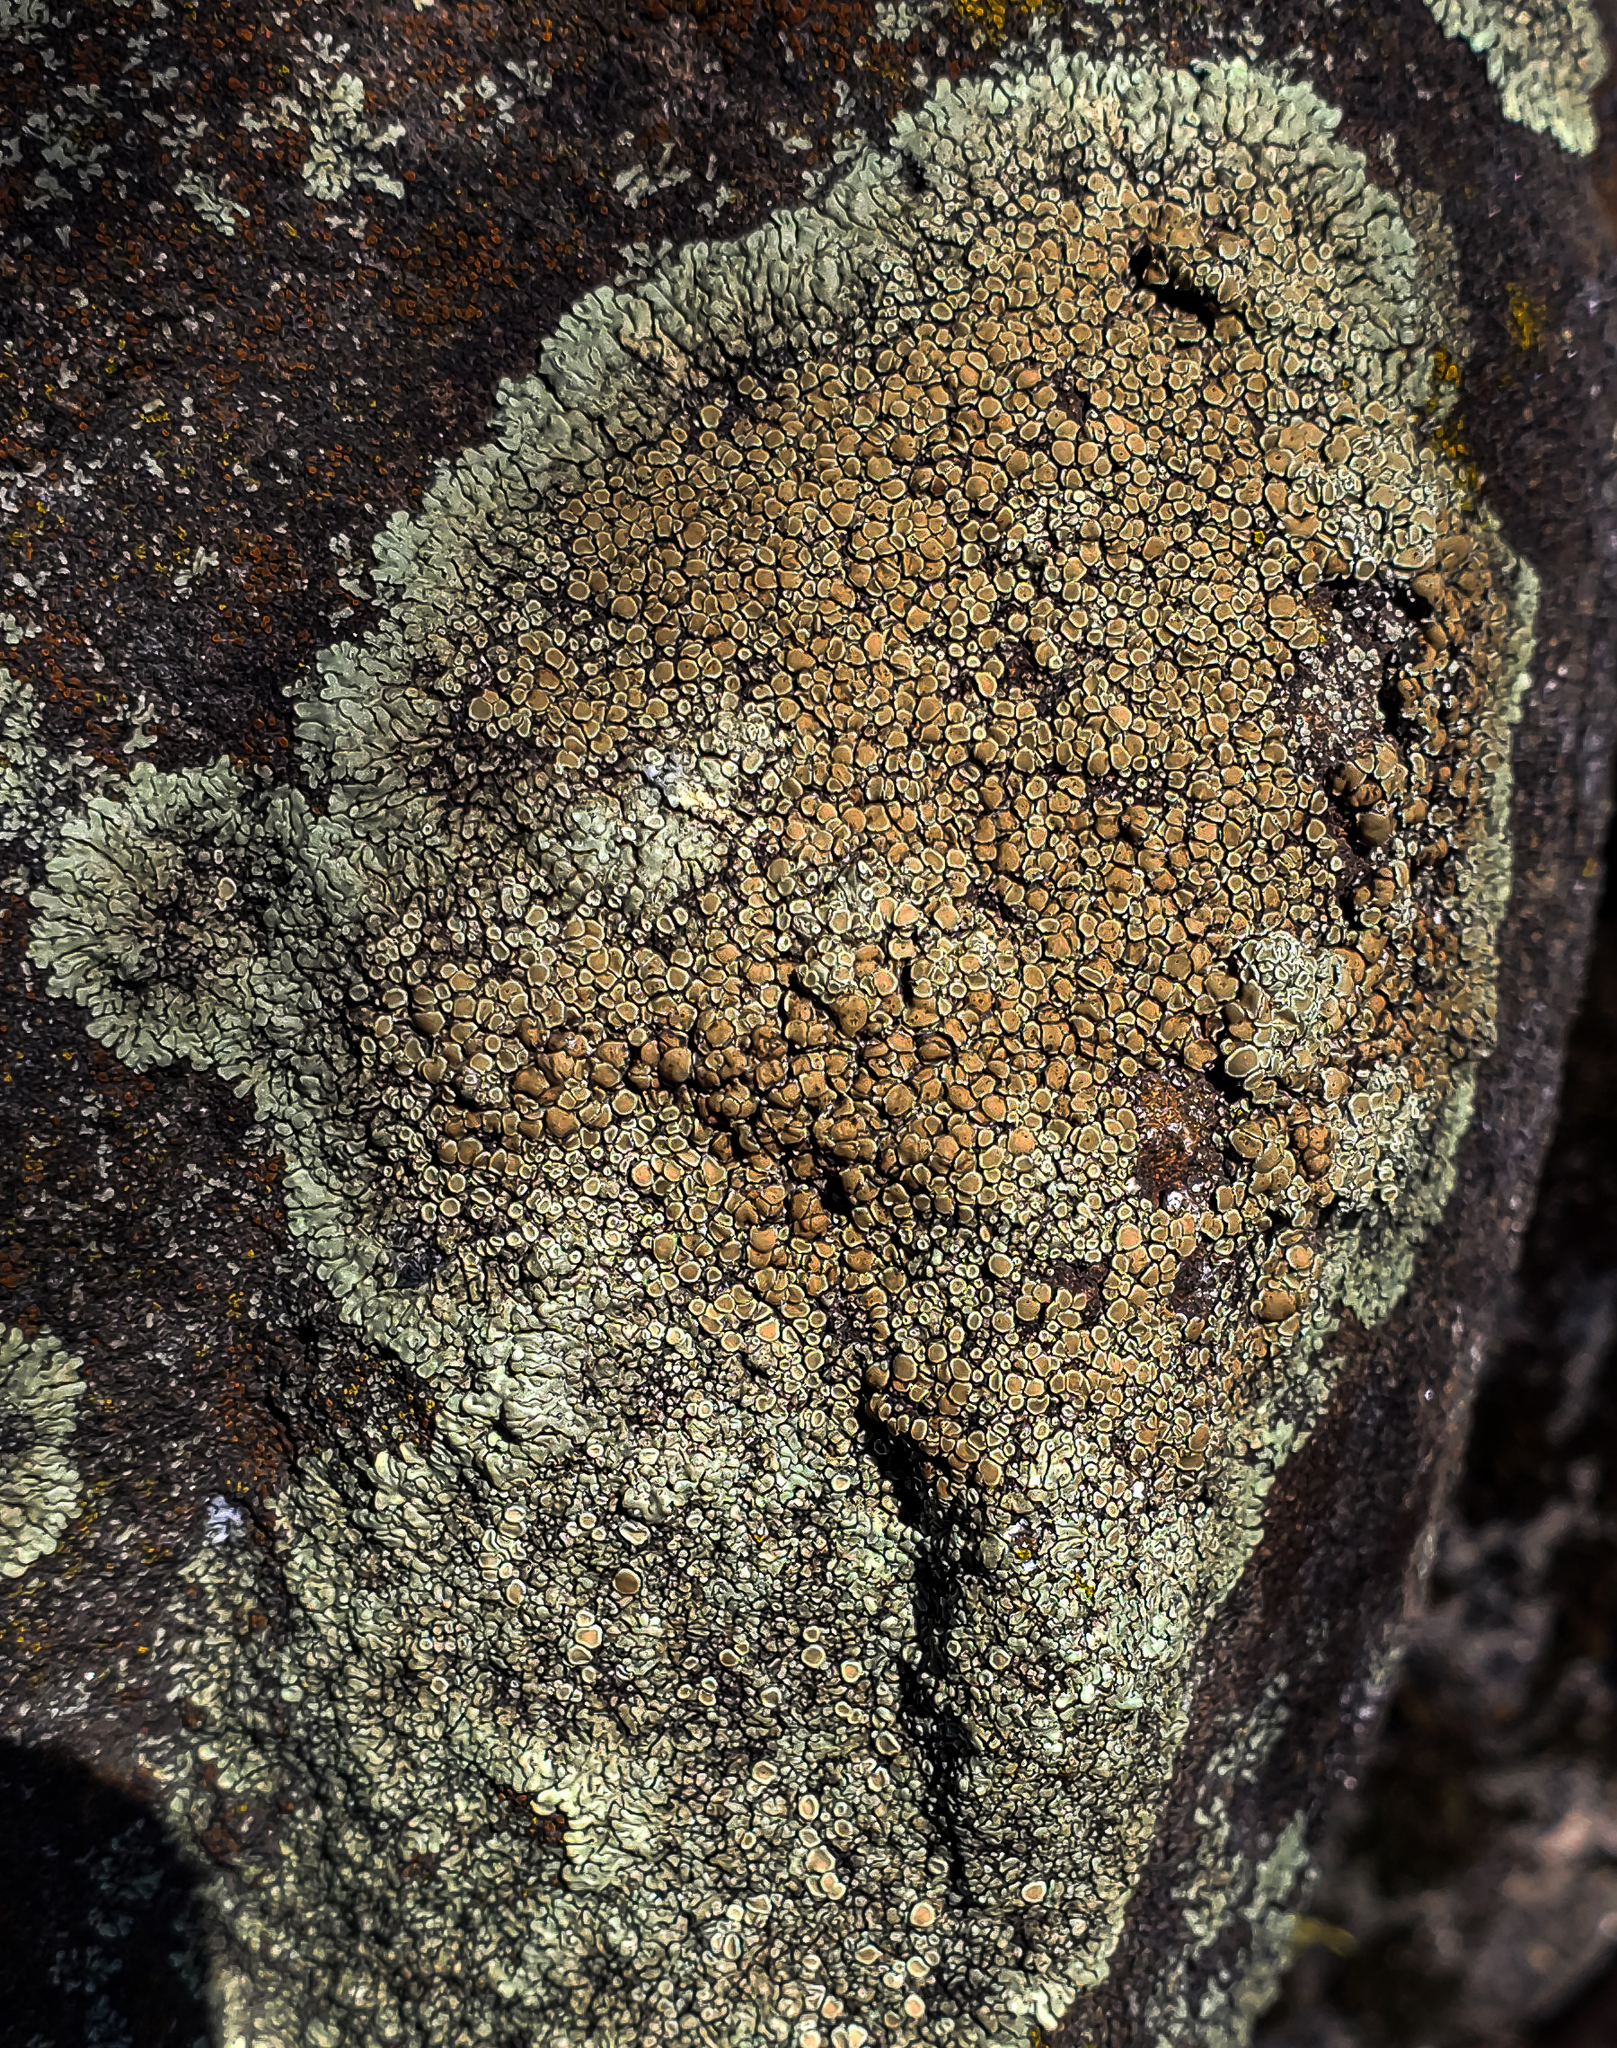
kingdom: Fungi
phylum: Ascomycota
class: Lecanoromycetes
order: Lecanorales
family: Lecanoraceae
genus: Protoparmeliopsis
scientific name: Protoparmeliopsis muralis
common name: Stonewall rim lichen
